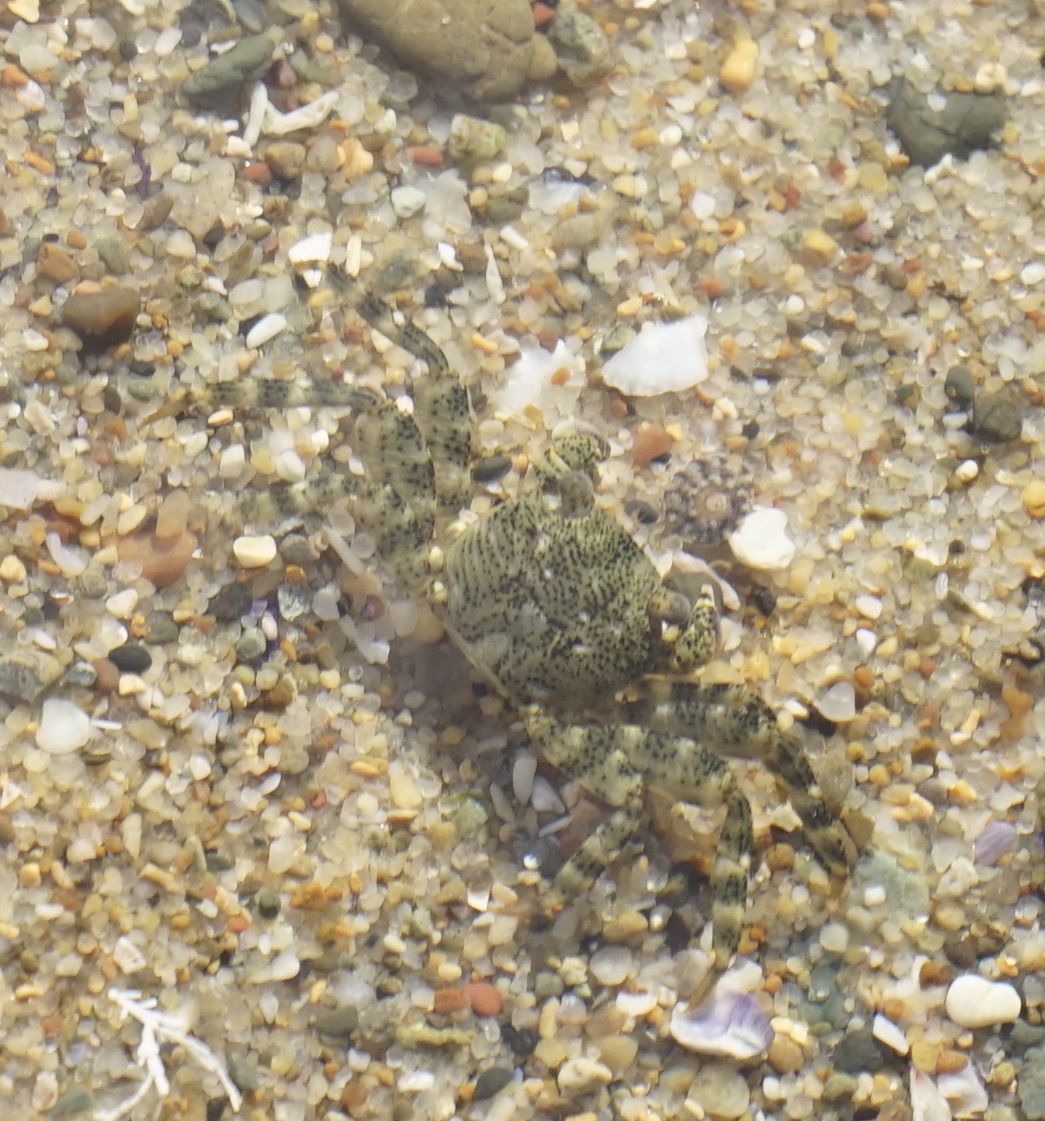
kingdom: Animalia
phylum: Arthropoda
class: Malacostraca
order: Decapoda
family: Grapsidae
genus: Leptograpsus
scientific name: Leptograpsus variegatus
